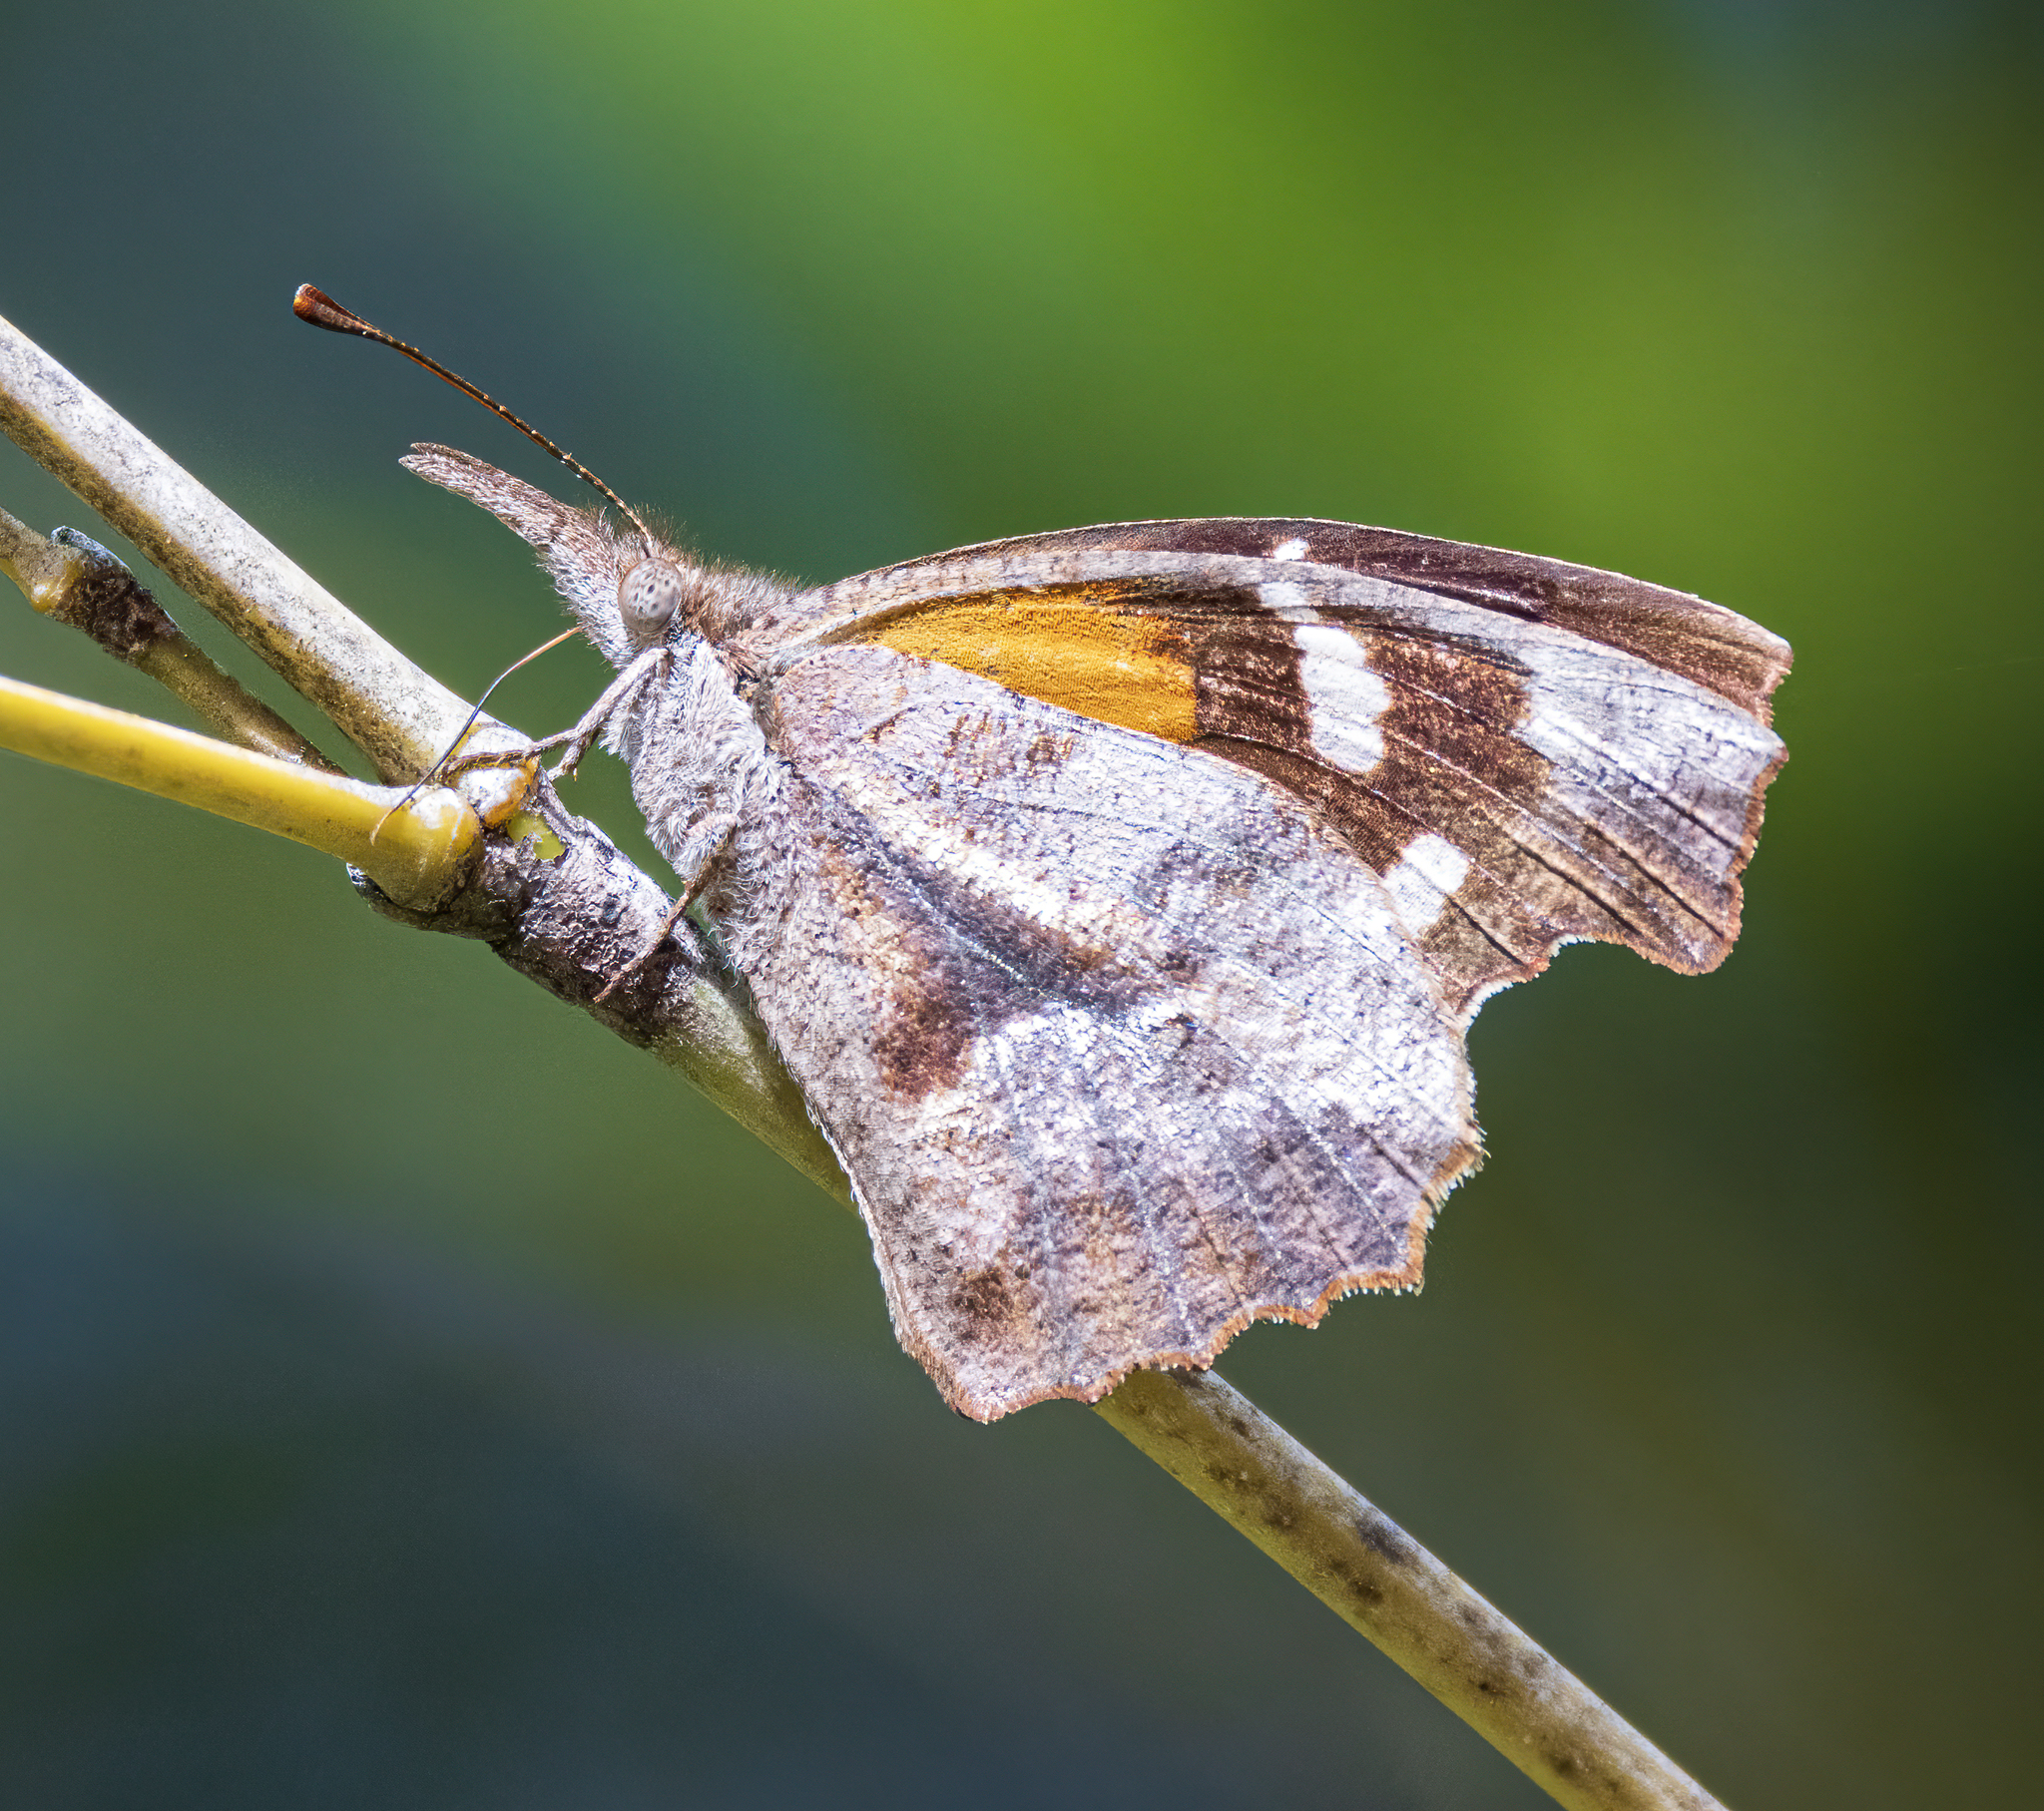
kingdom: Animalia
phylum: Arthropoda
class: Insecta
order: Lepidoptera
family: Nymphalidae
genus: Libytheana
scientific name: Libytheana carinenta
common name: American snout
